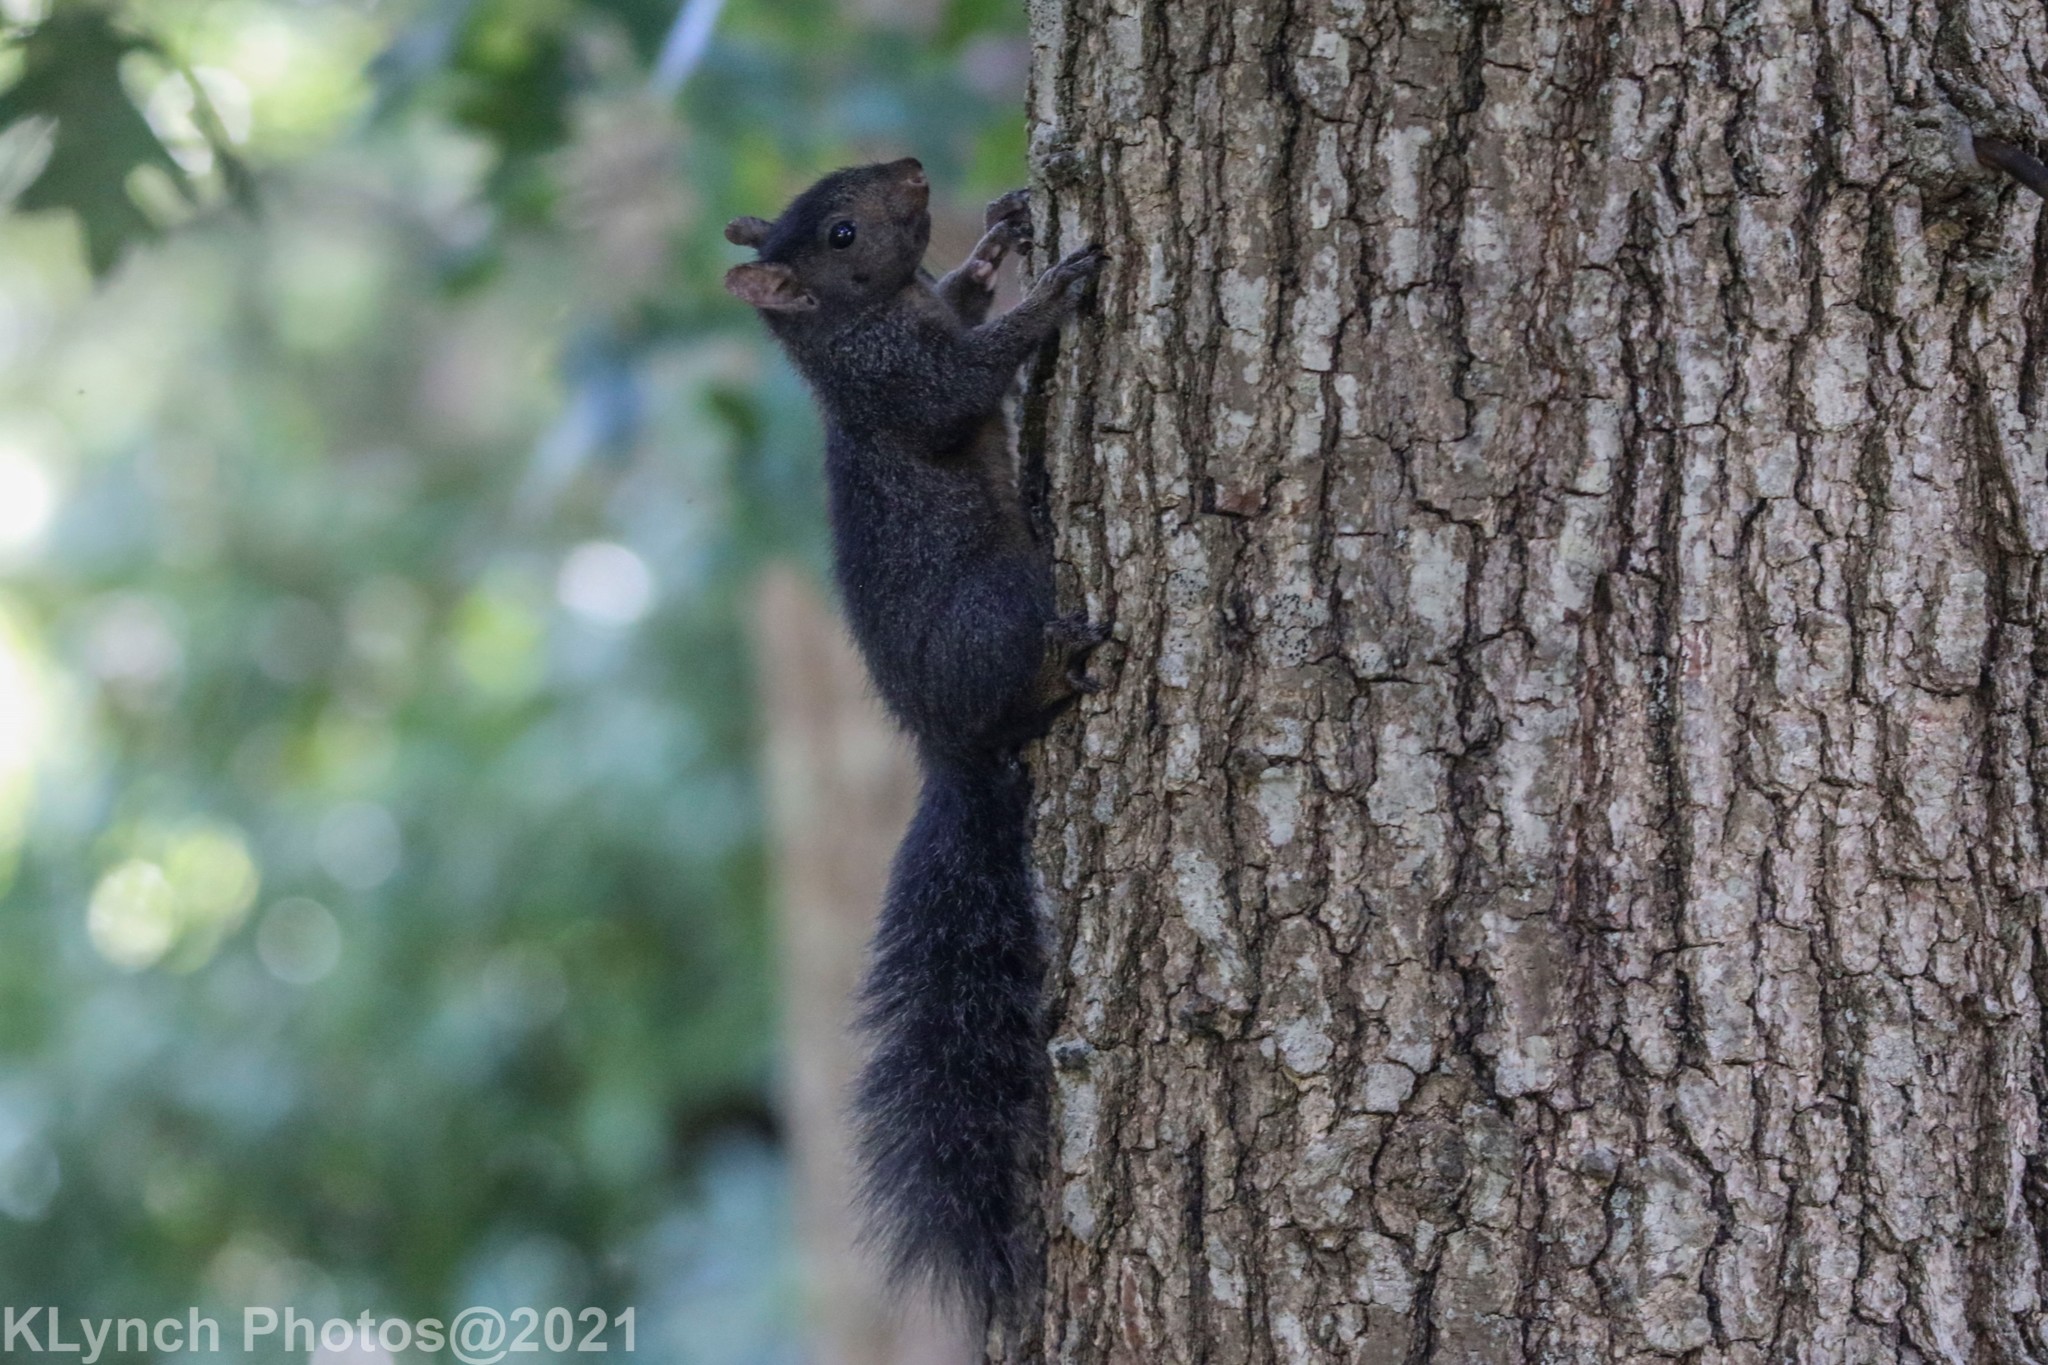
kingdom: Animalia
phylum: Chordata
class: Mammalia
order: Rodentia
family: Sciuridae
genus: Sciurus
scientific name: Sciurus carolinensis
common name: Eastern gray squirrel
